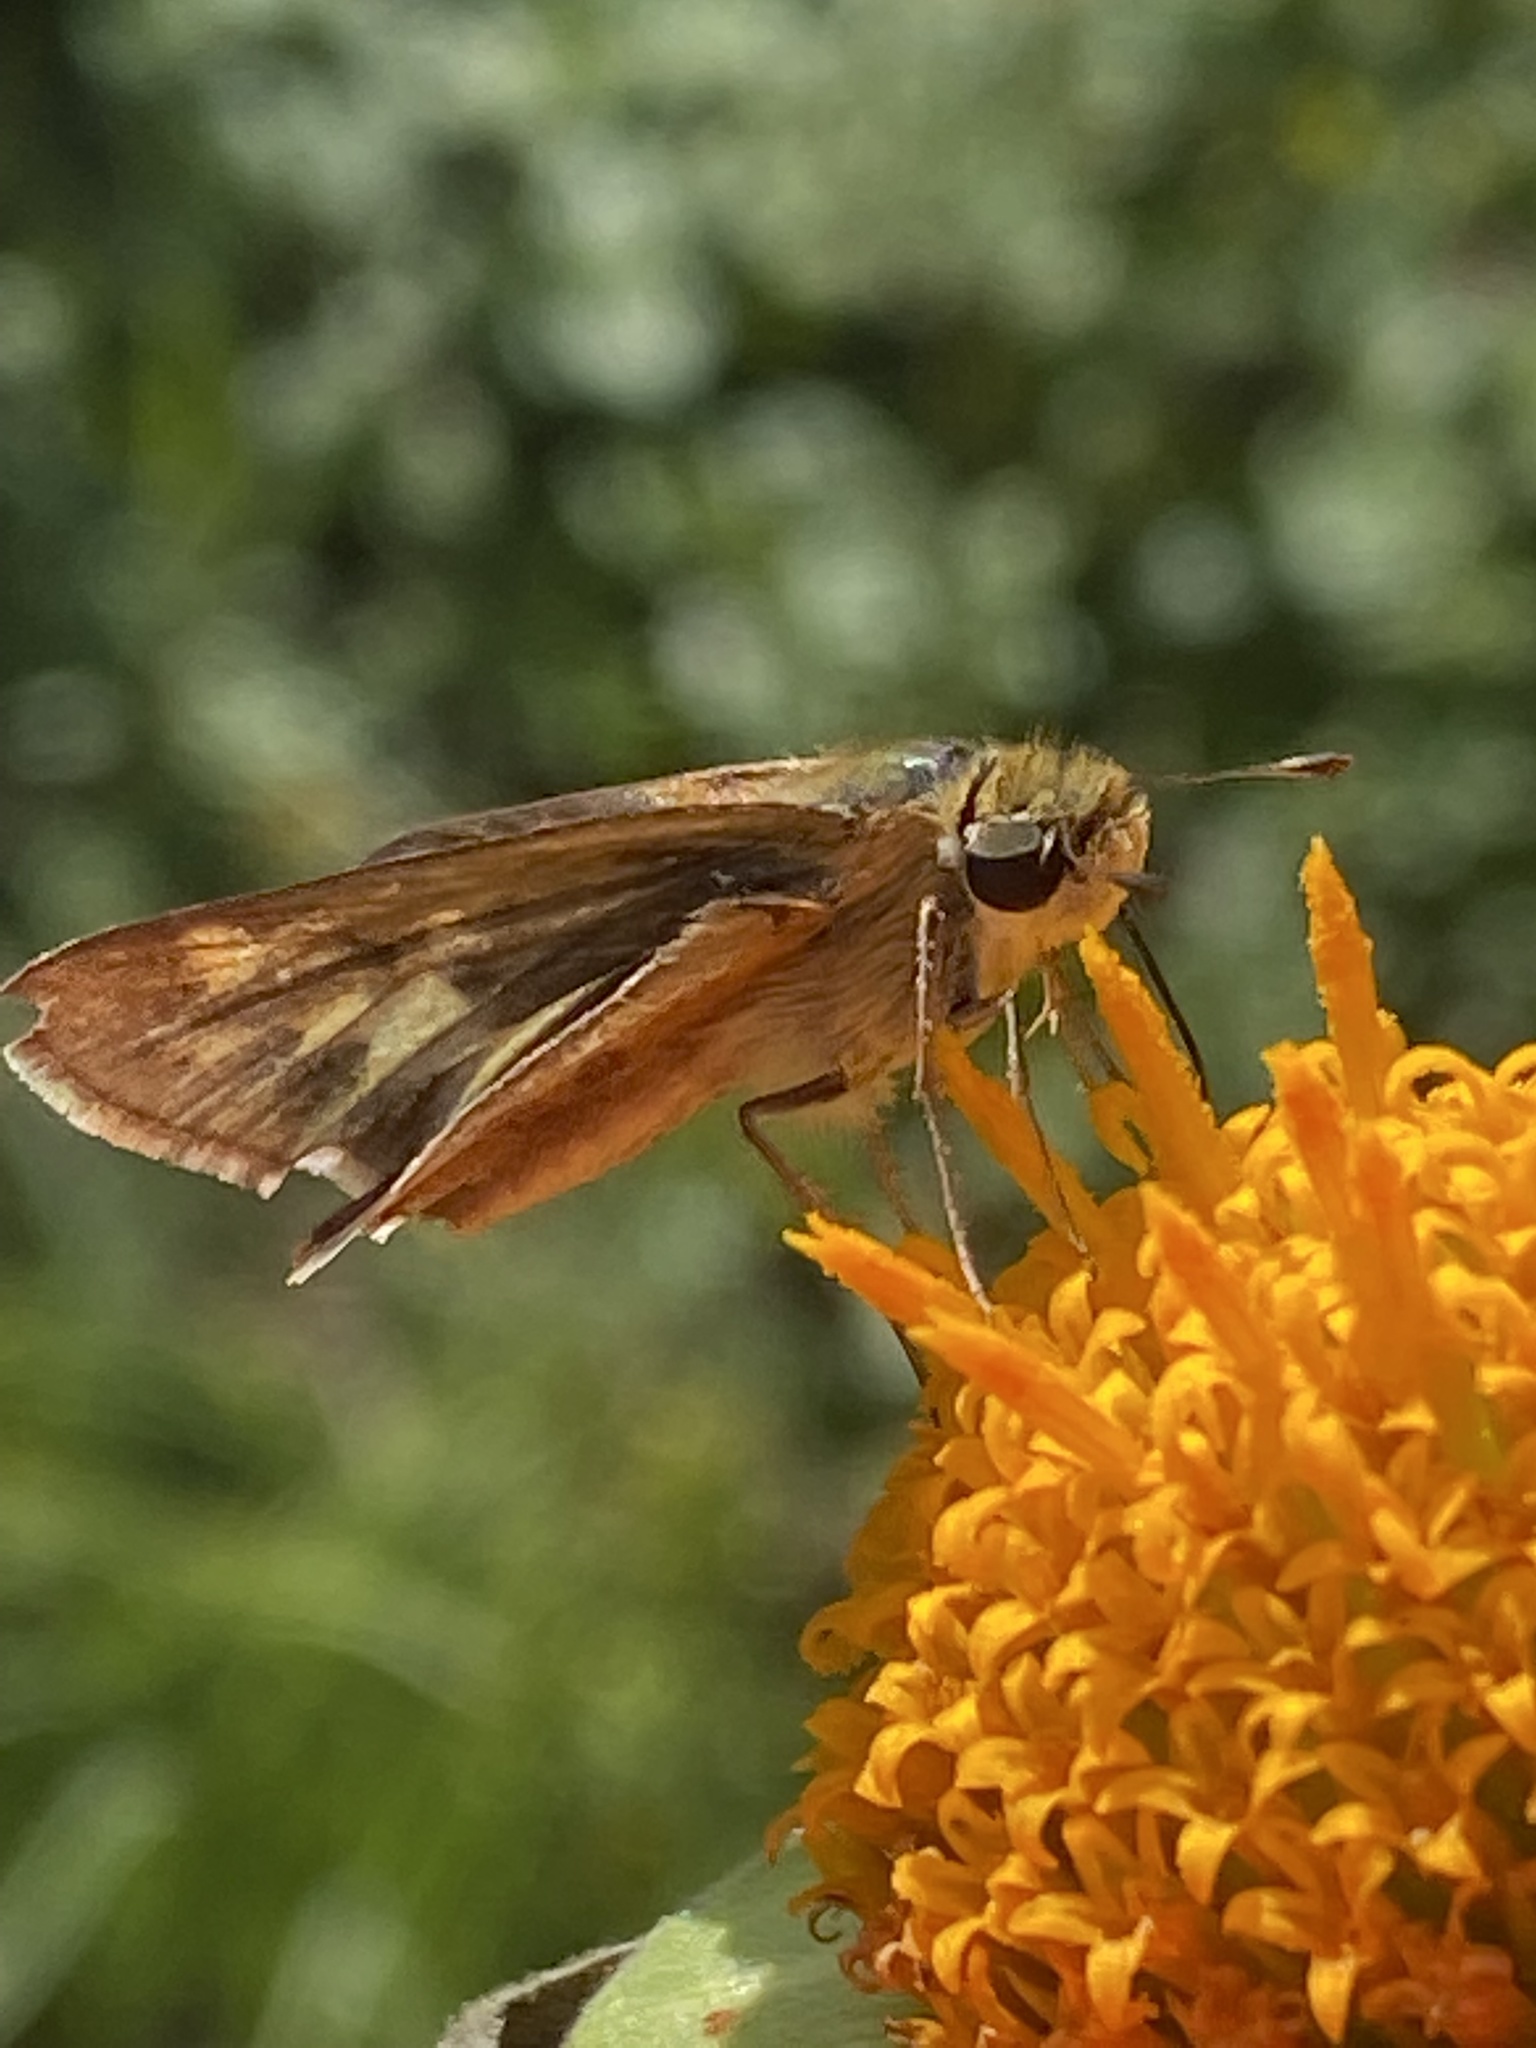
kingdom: Animalia
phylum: Arthropoda
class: Insecta
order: Lepidoptera
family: Hesperiidae
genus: Atalopedes
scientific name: Atalopedes
